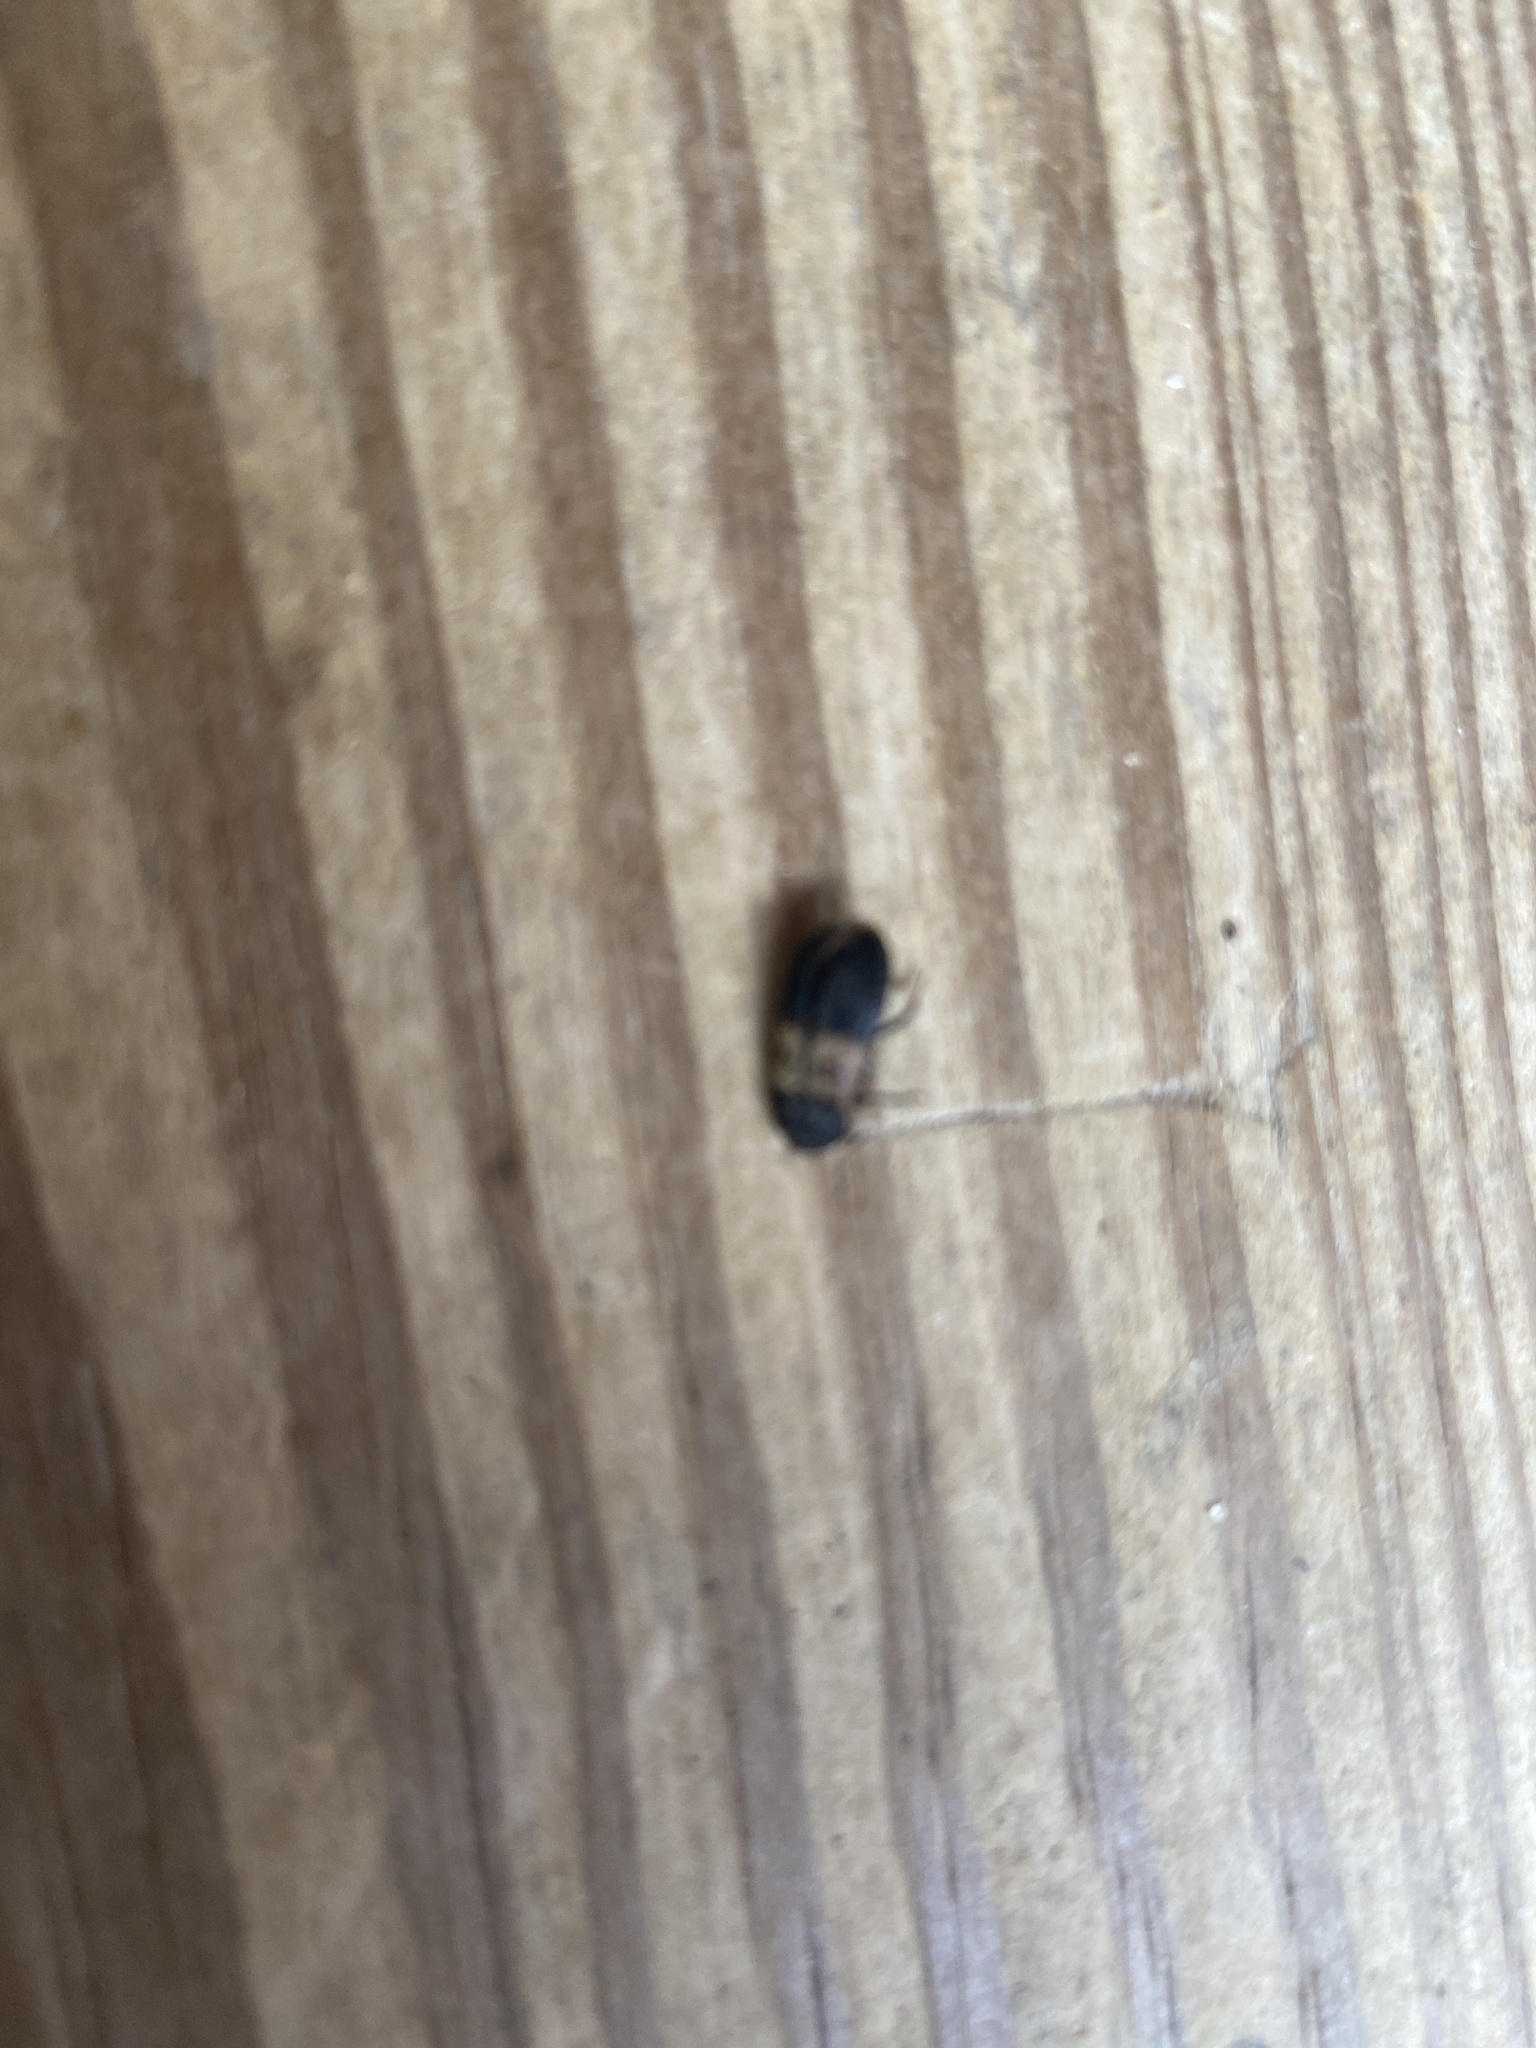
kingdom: Animalia
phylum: Arthropoda
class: Insecta
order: Coleoptera
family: Dermestidae
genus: Dermestes
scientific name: Dermestes lardarius
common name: Larder beetle
